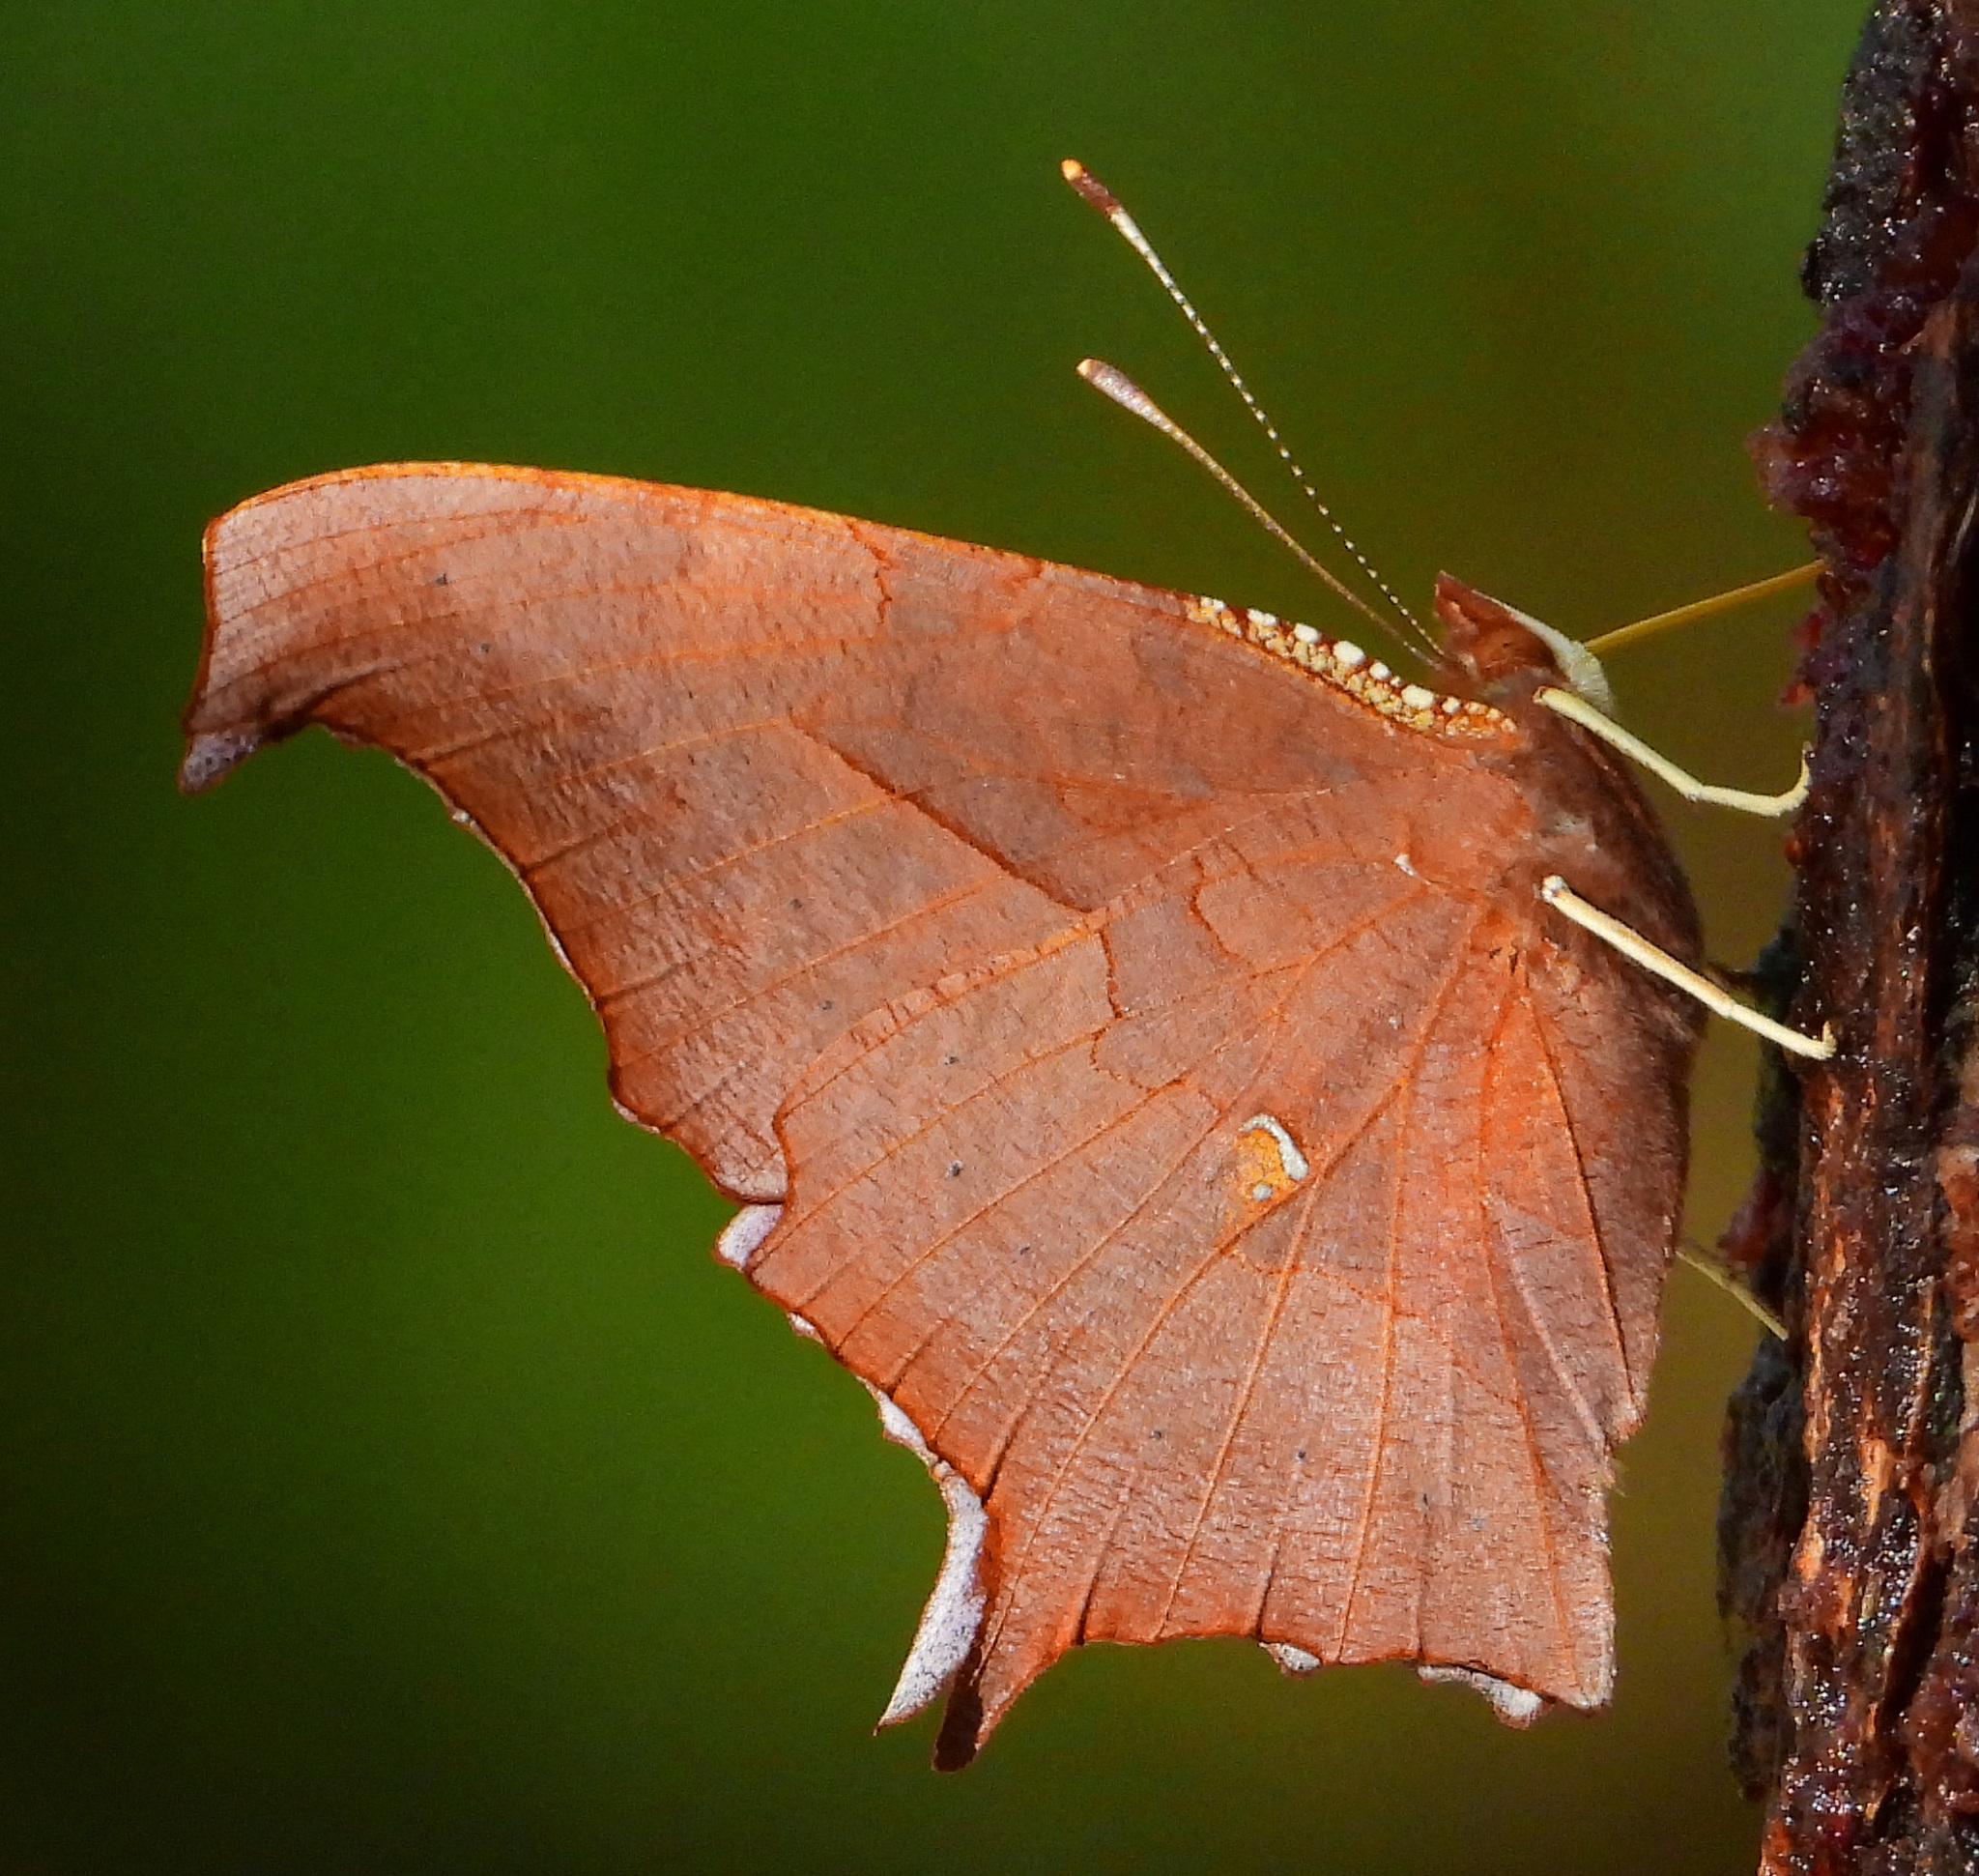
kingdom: Animalia
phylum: Arthropoda
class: Insecta
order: Lepidoptera
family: Nymphalidae
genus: Polygonia
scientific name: Polygonia interrogationis
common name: Question mark
